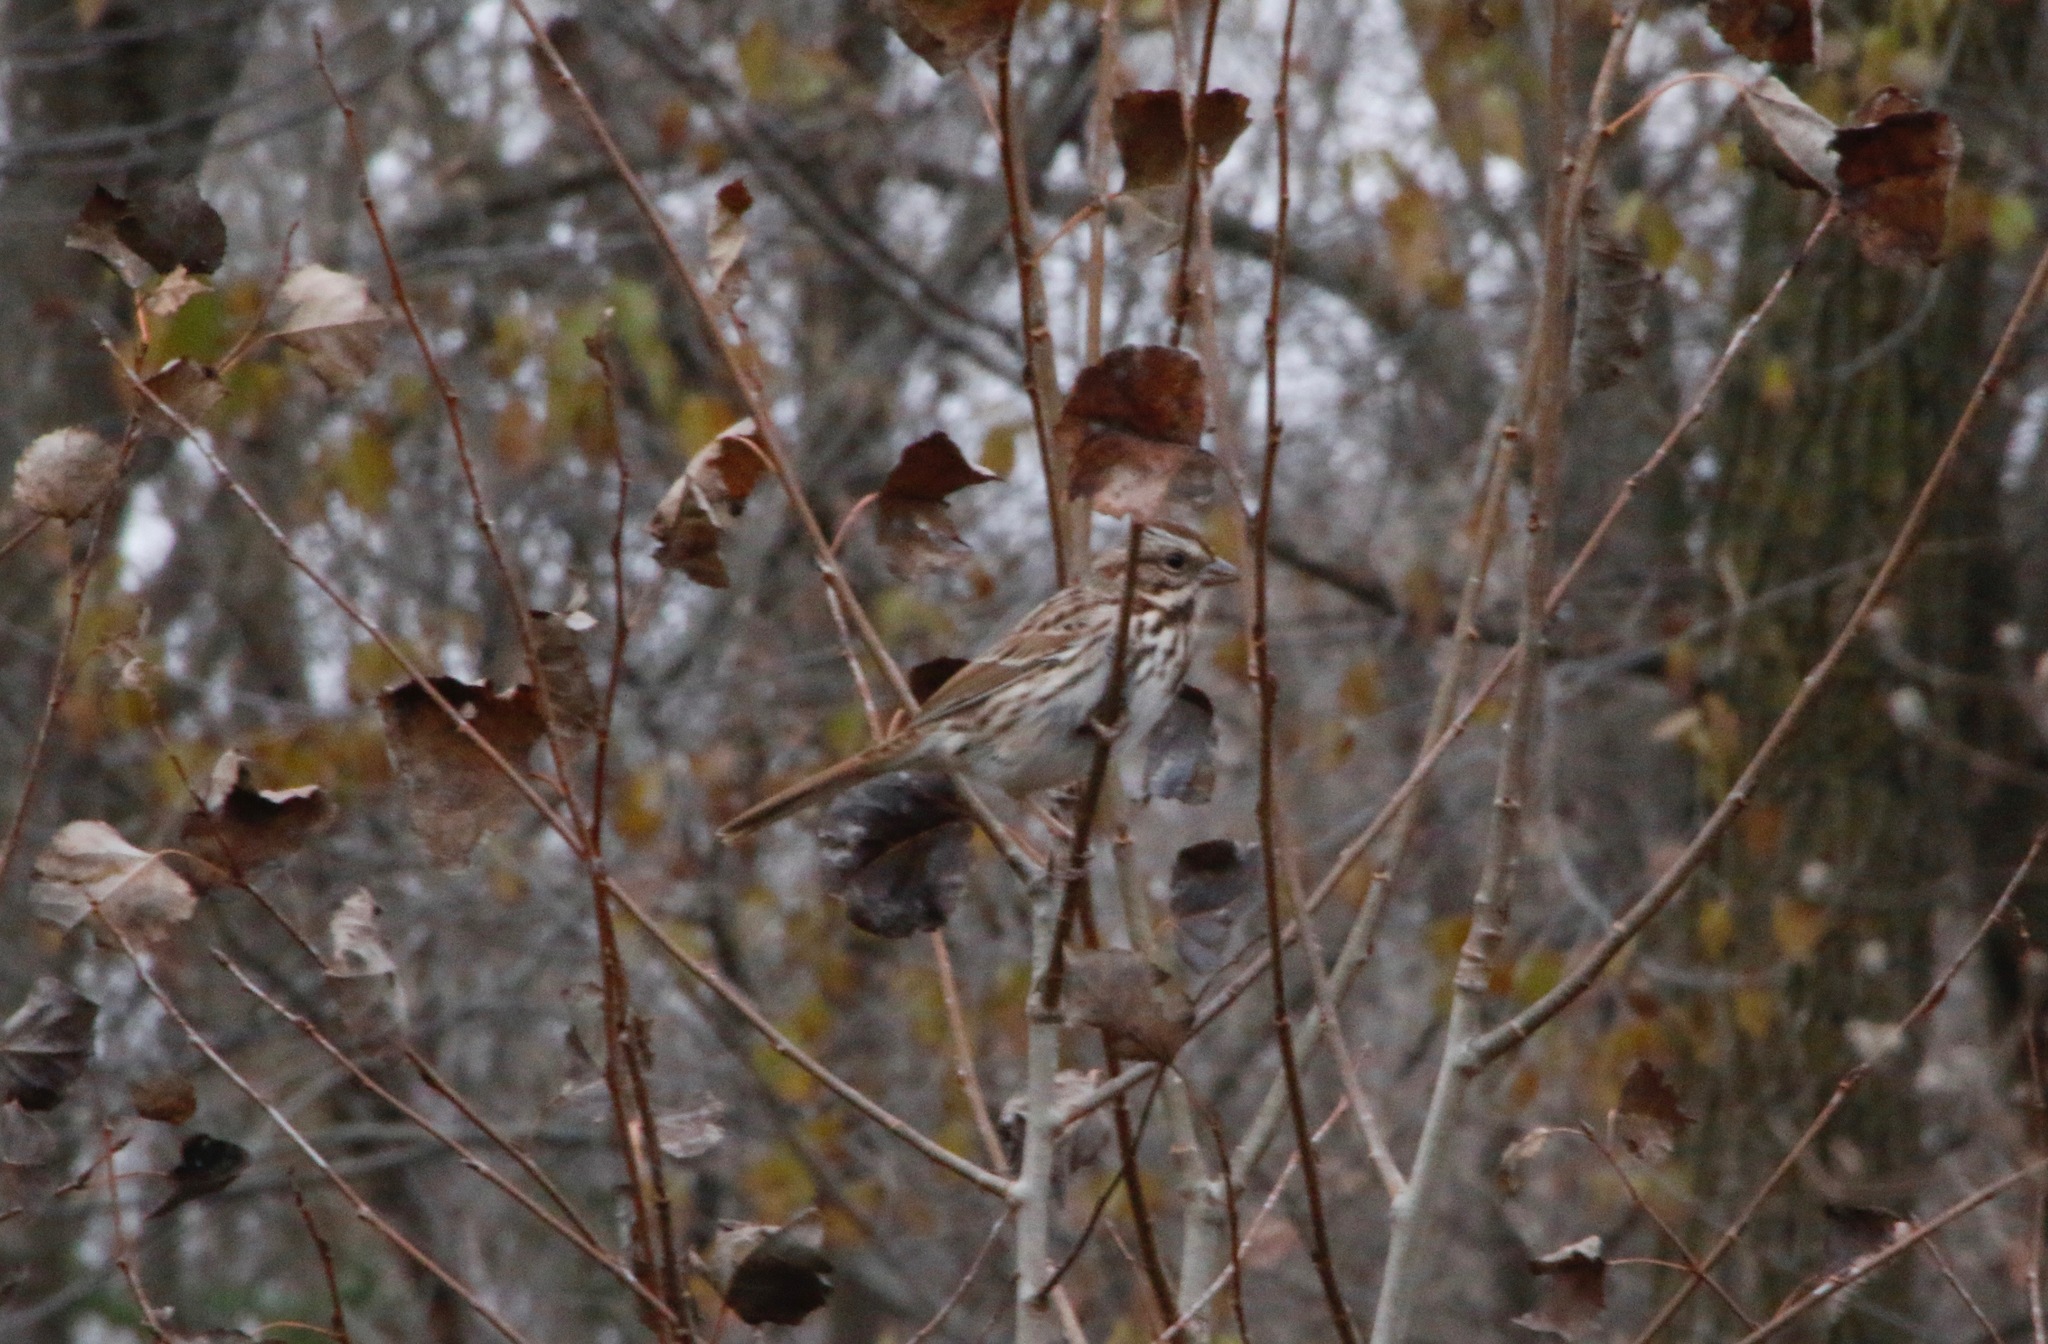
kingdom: Animalia
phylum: Chordata
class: Aves
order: Passeriformes
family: Passerellidae
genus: Melospiza
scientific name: Melospiza melodia
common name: Song sparrow
